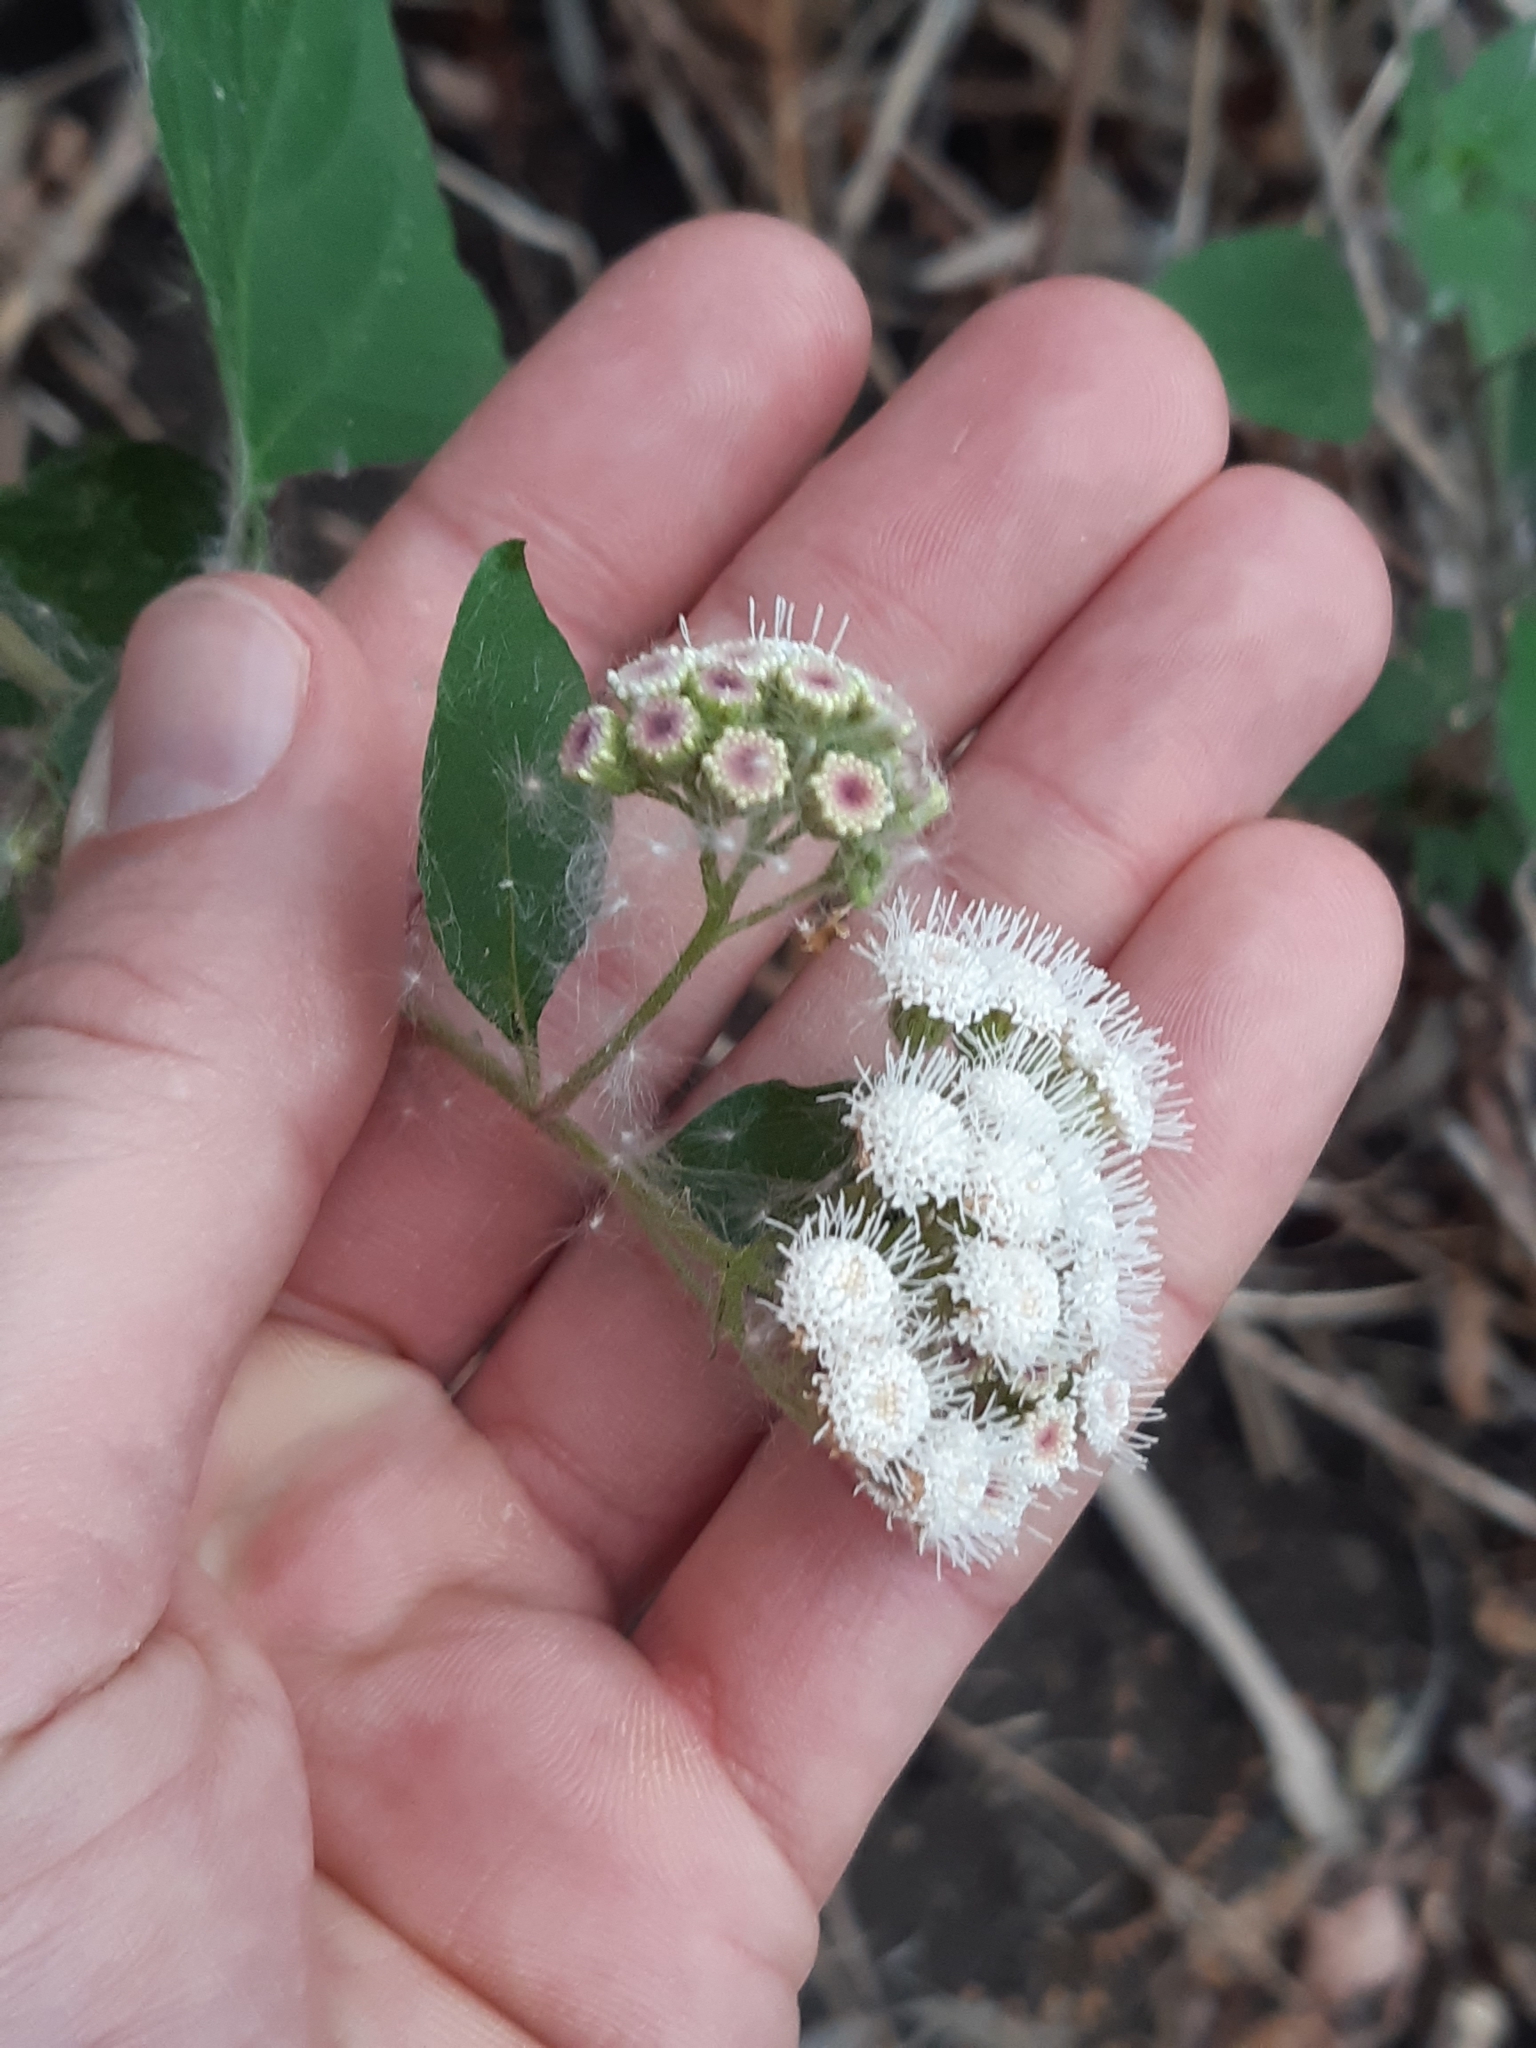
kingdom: Plantae
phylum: Tracheophyta
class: Magnoliopsida
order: Asterales
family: Asteraceae
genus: Ageratina
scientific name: Ageratina adenophora
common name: Sticky snakeroot
